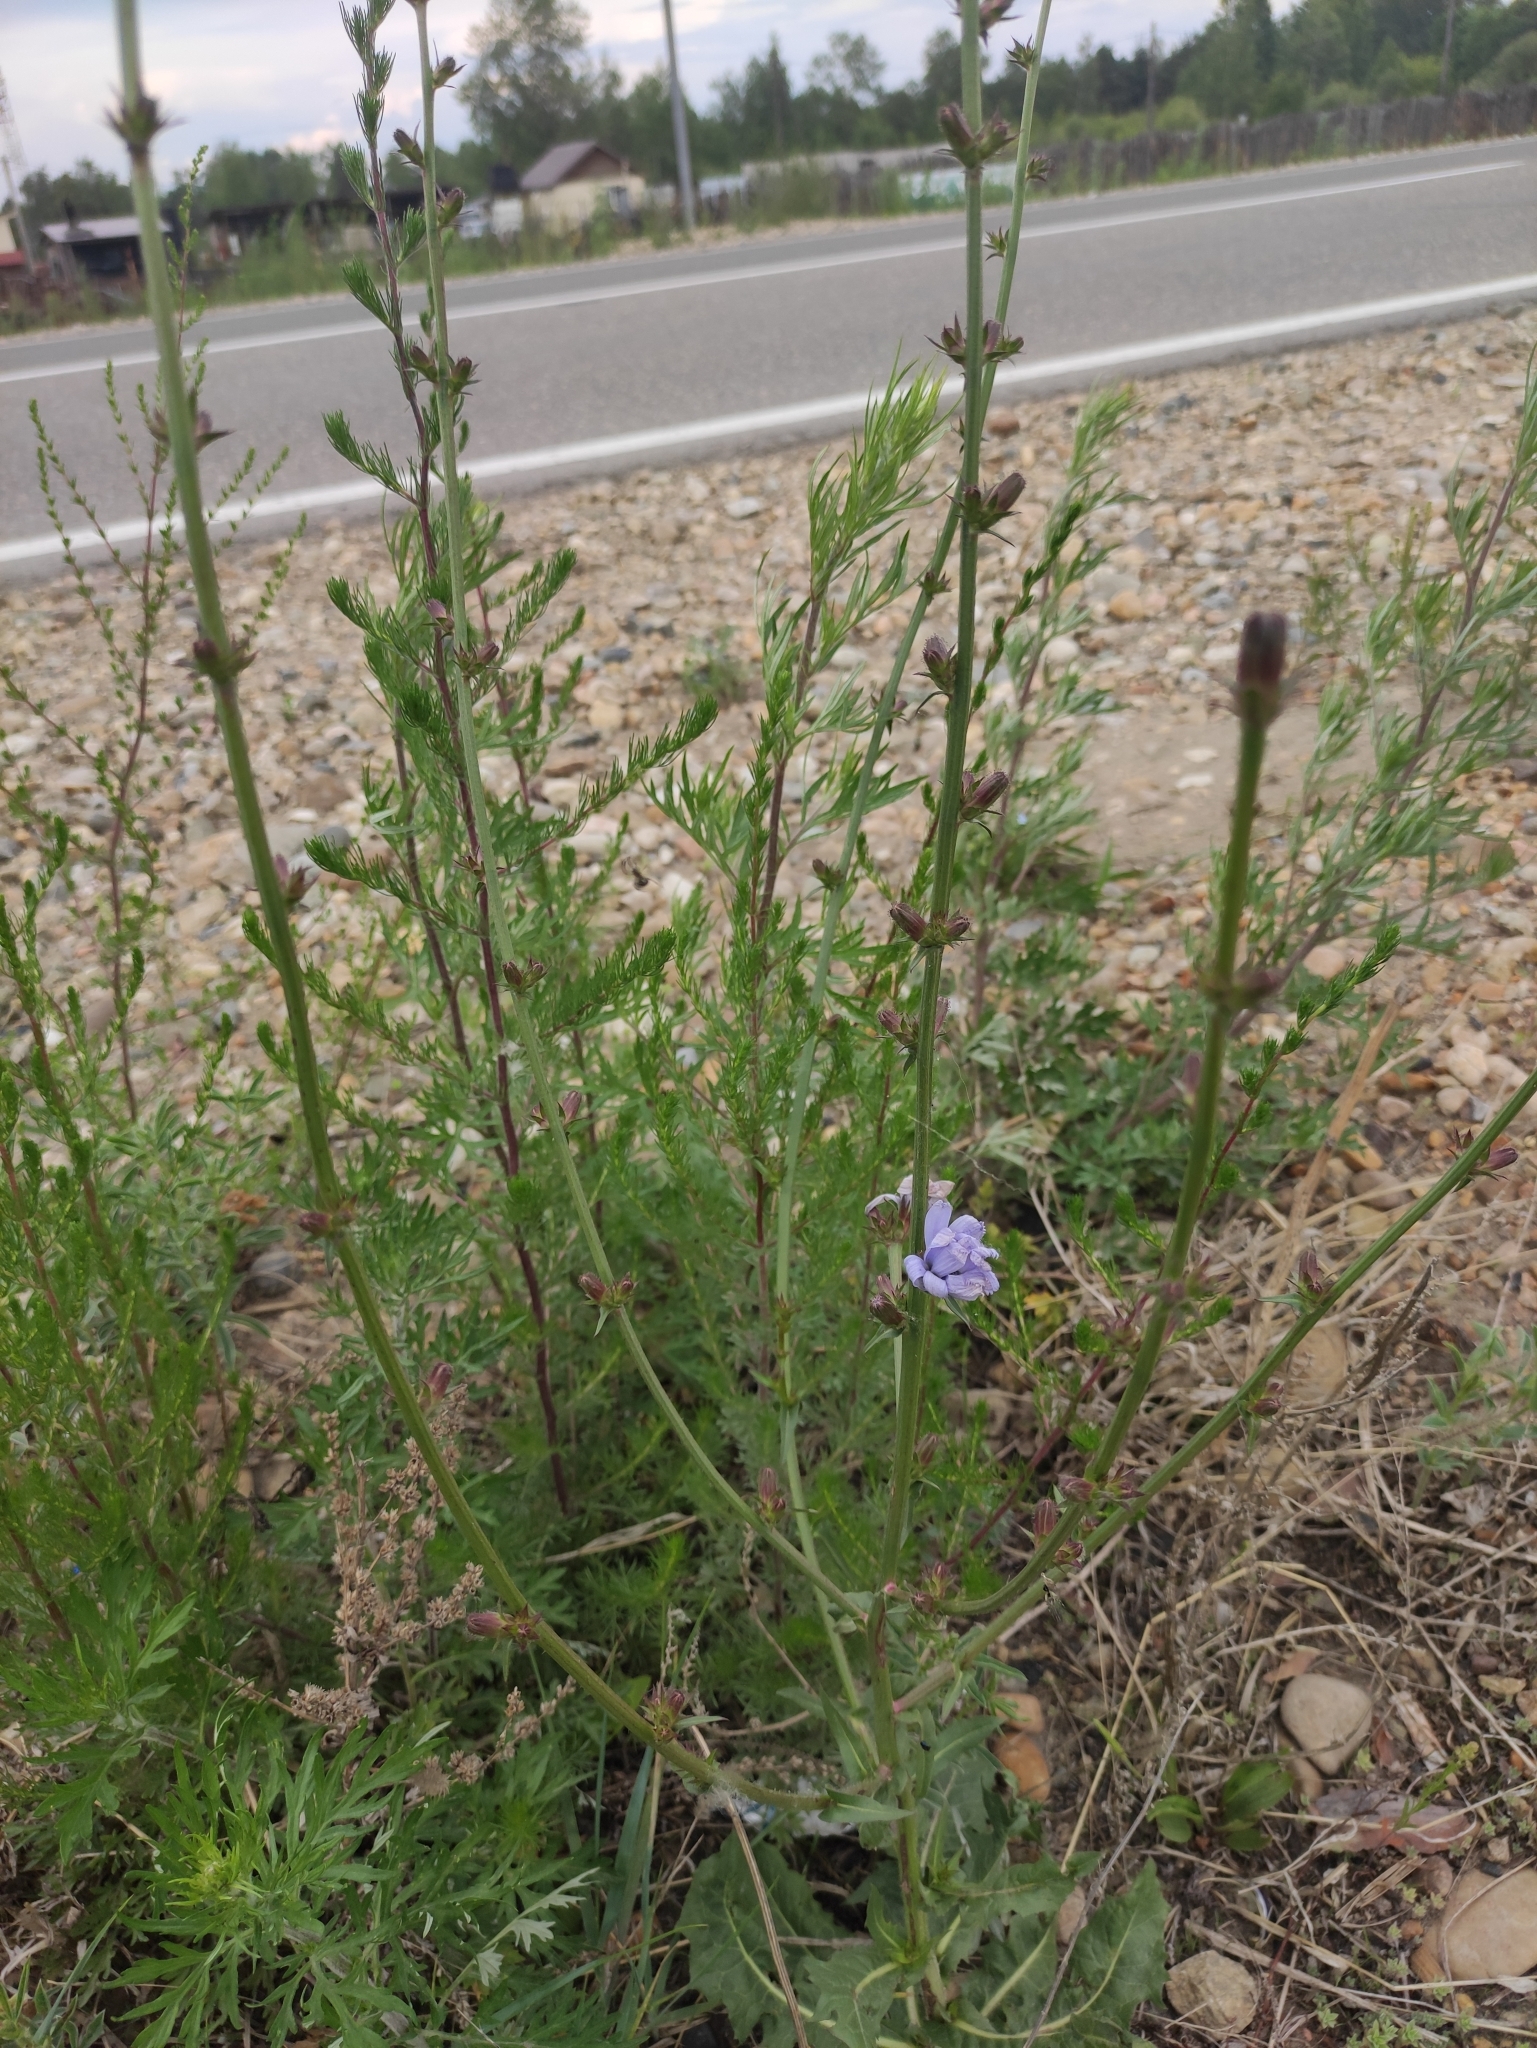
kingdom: Plantae
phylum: Tracheophyta
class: Magnoliopsida
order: Asterales
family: Asteraceae
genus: Cichorium
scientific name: Cichorium intybus
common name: Chicory
